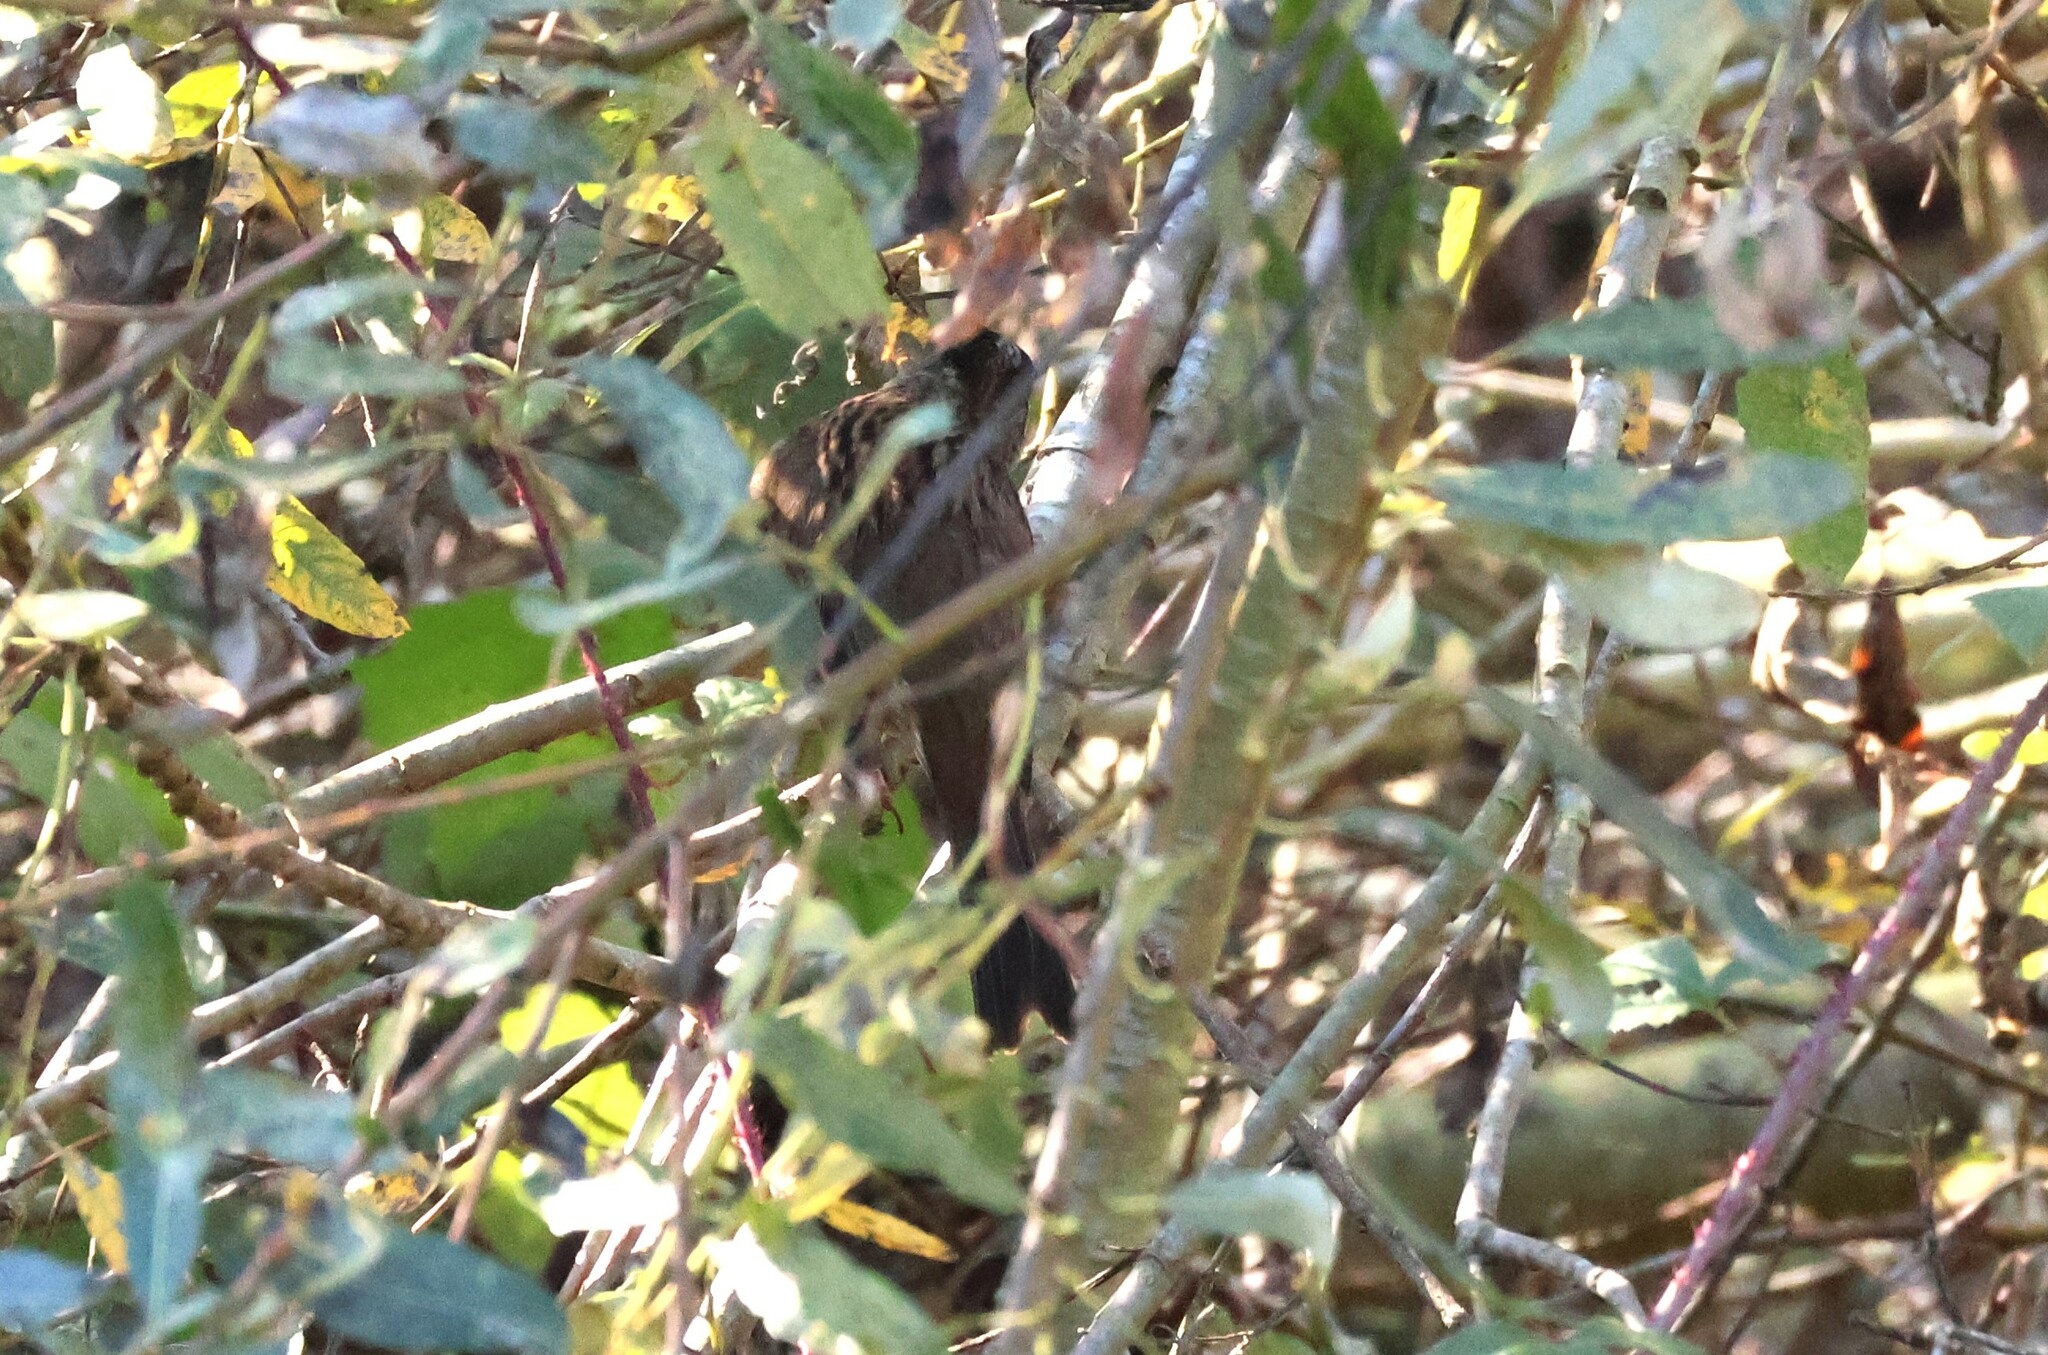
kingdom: Animalia
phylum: Chordata
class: Aves
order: Passeriformes
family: Passerellidae
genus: Zonotrichia
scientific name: Zonotrichia atricapilla
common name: Golden-crowned sparrow
